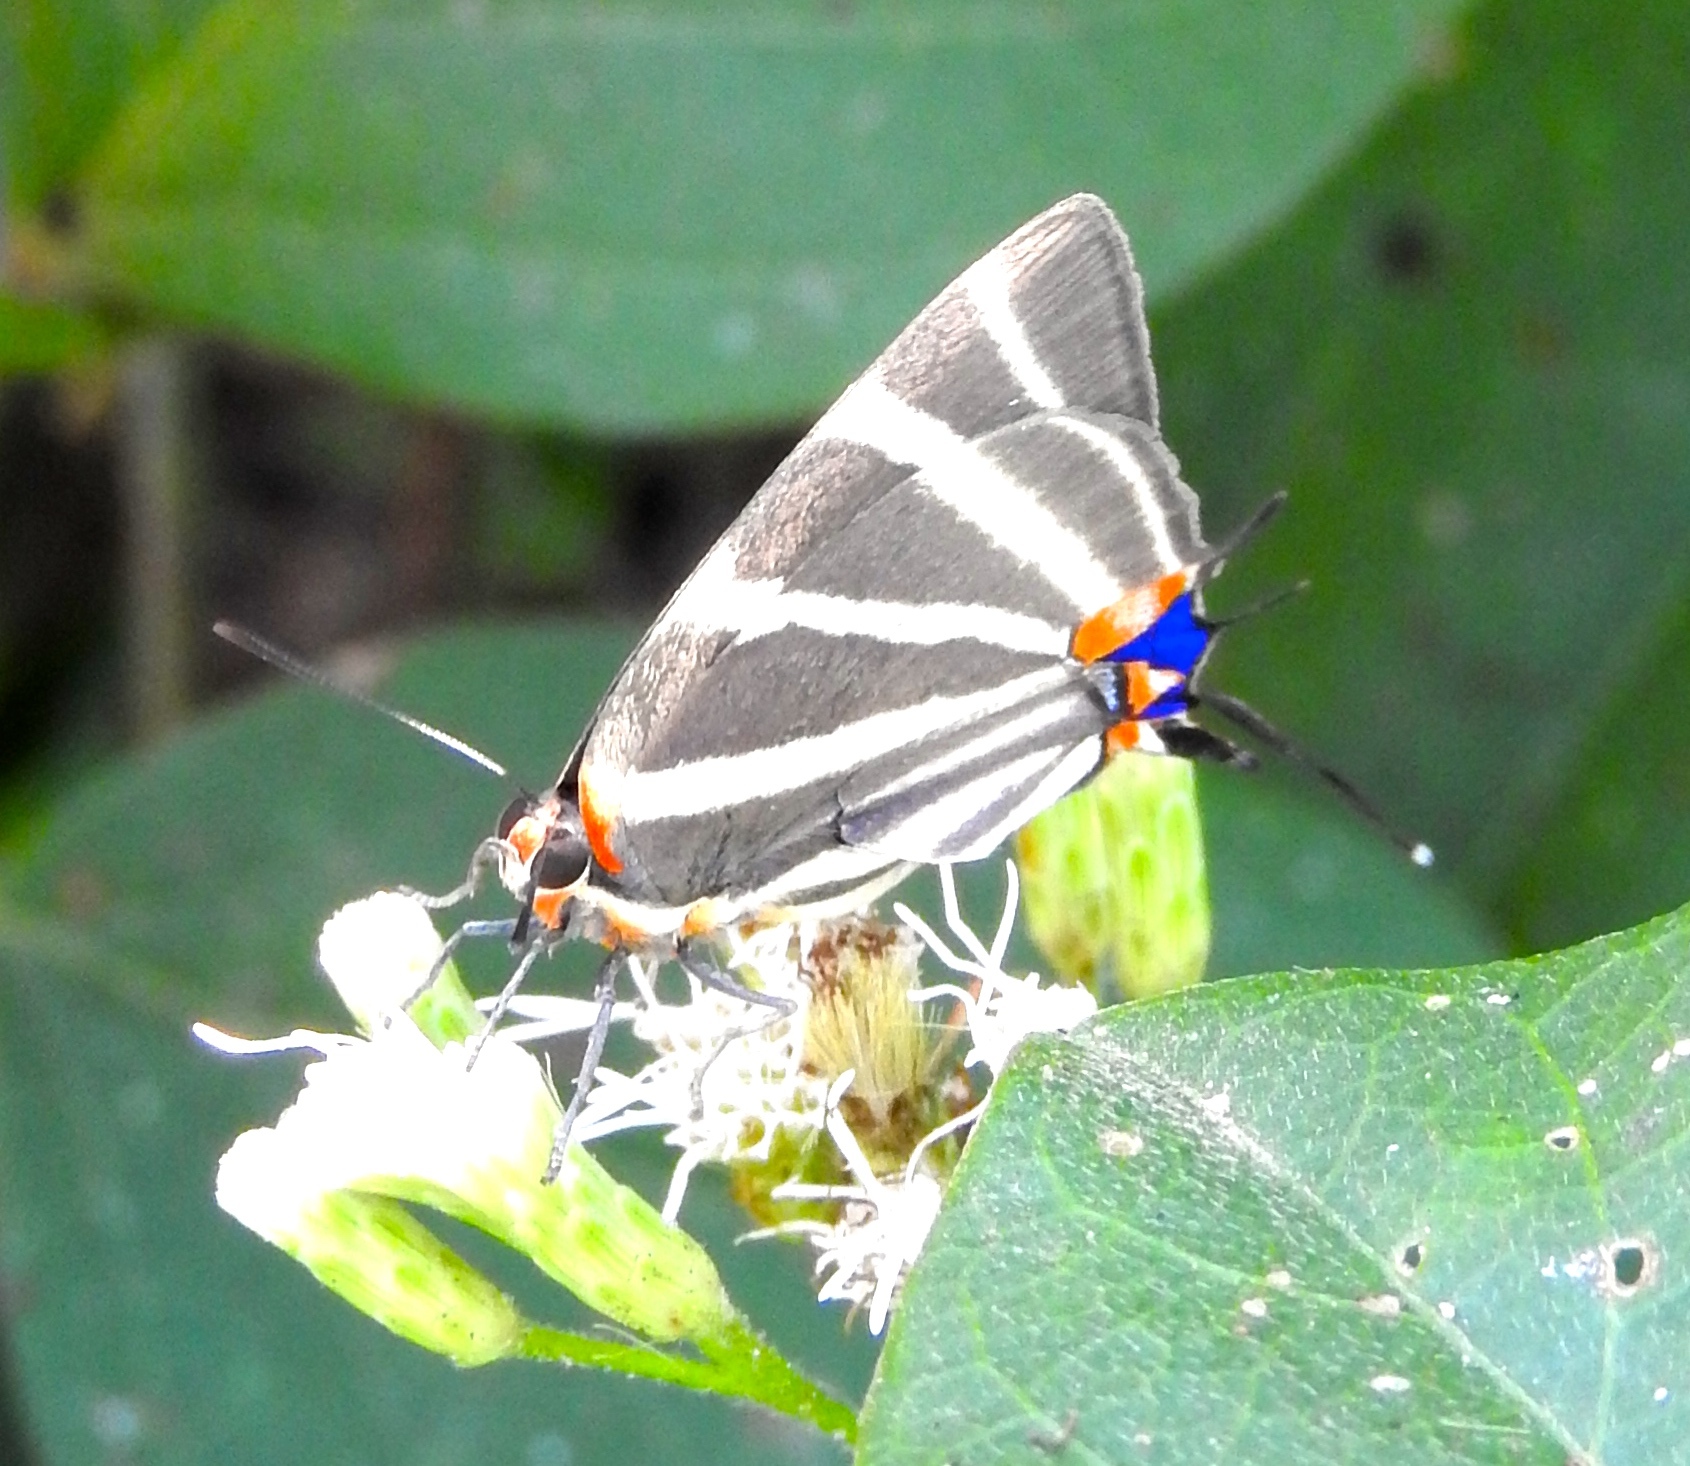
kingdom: Animalia
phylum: Arthropoda
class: Insecta
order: Lepidoptera
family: Lycaenidae
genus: Thecla
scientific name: Thecla bathildis
